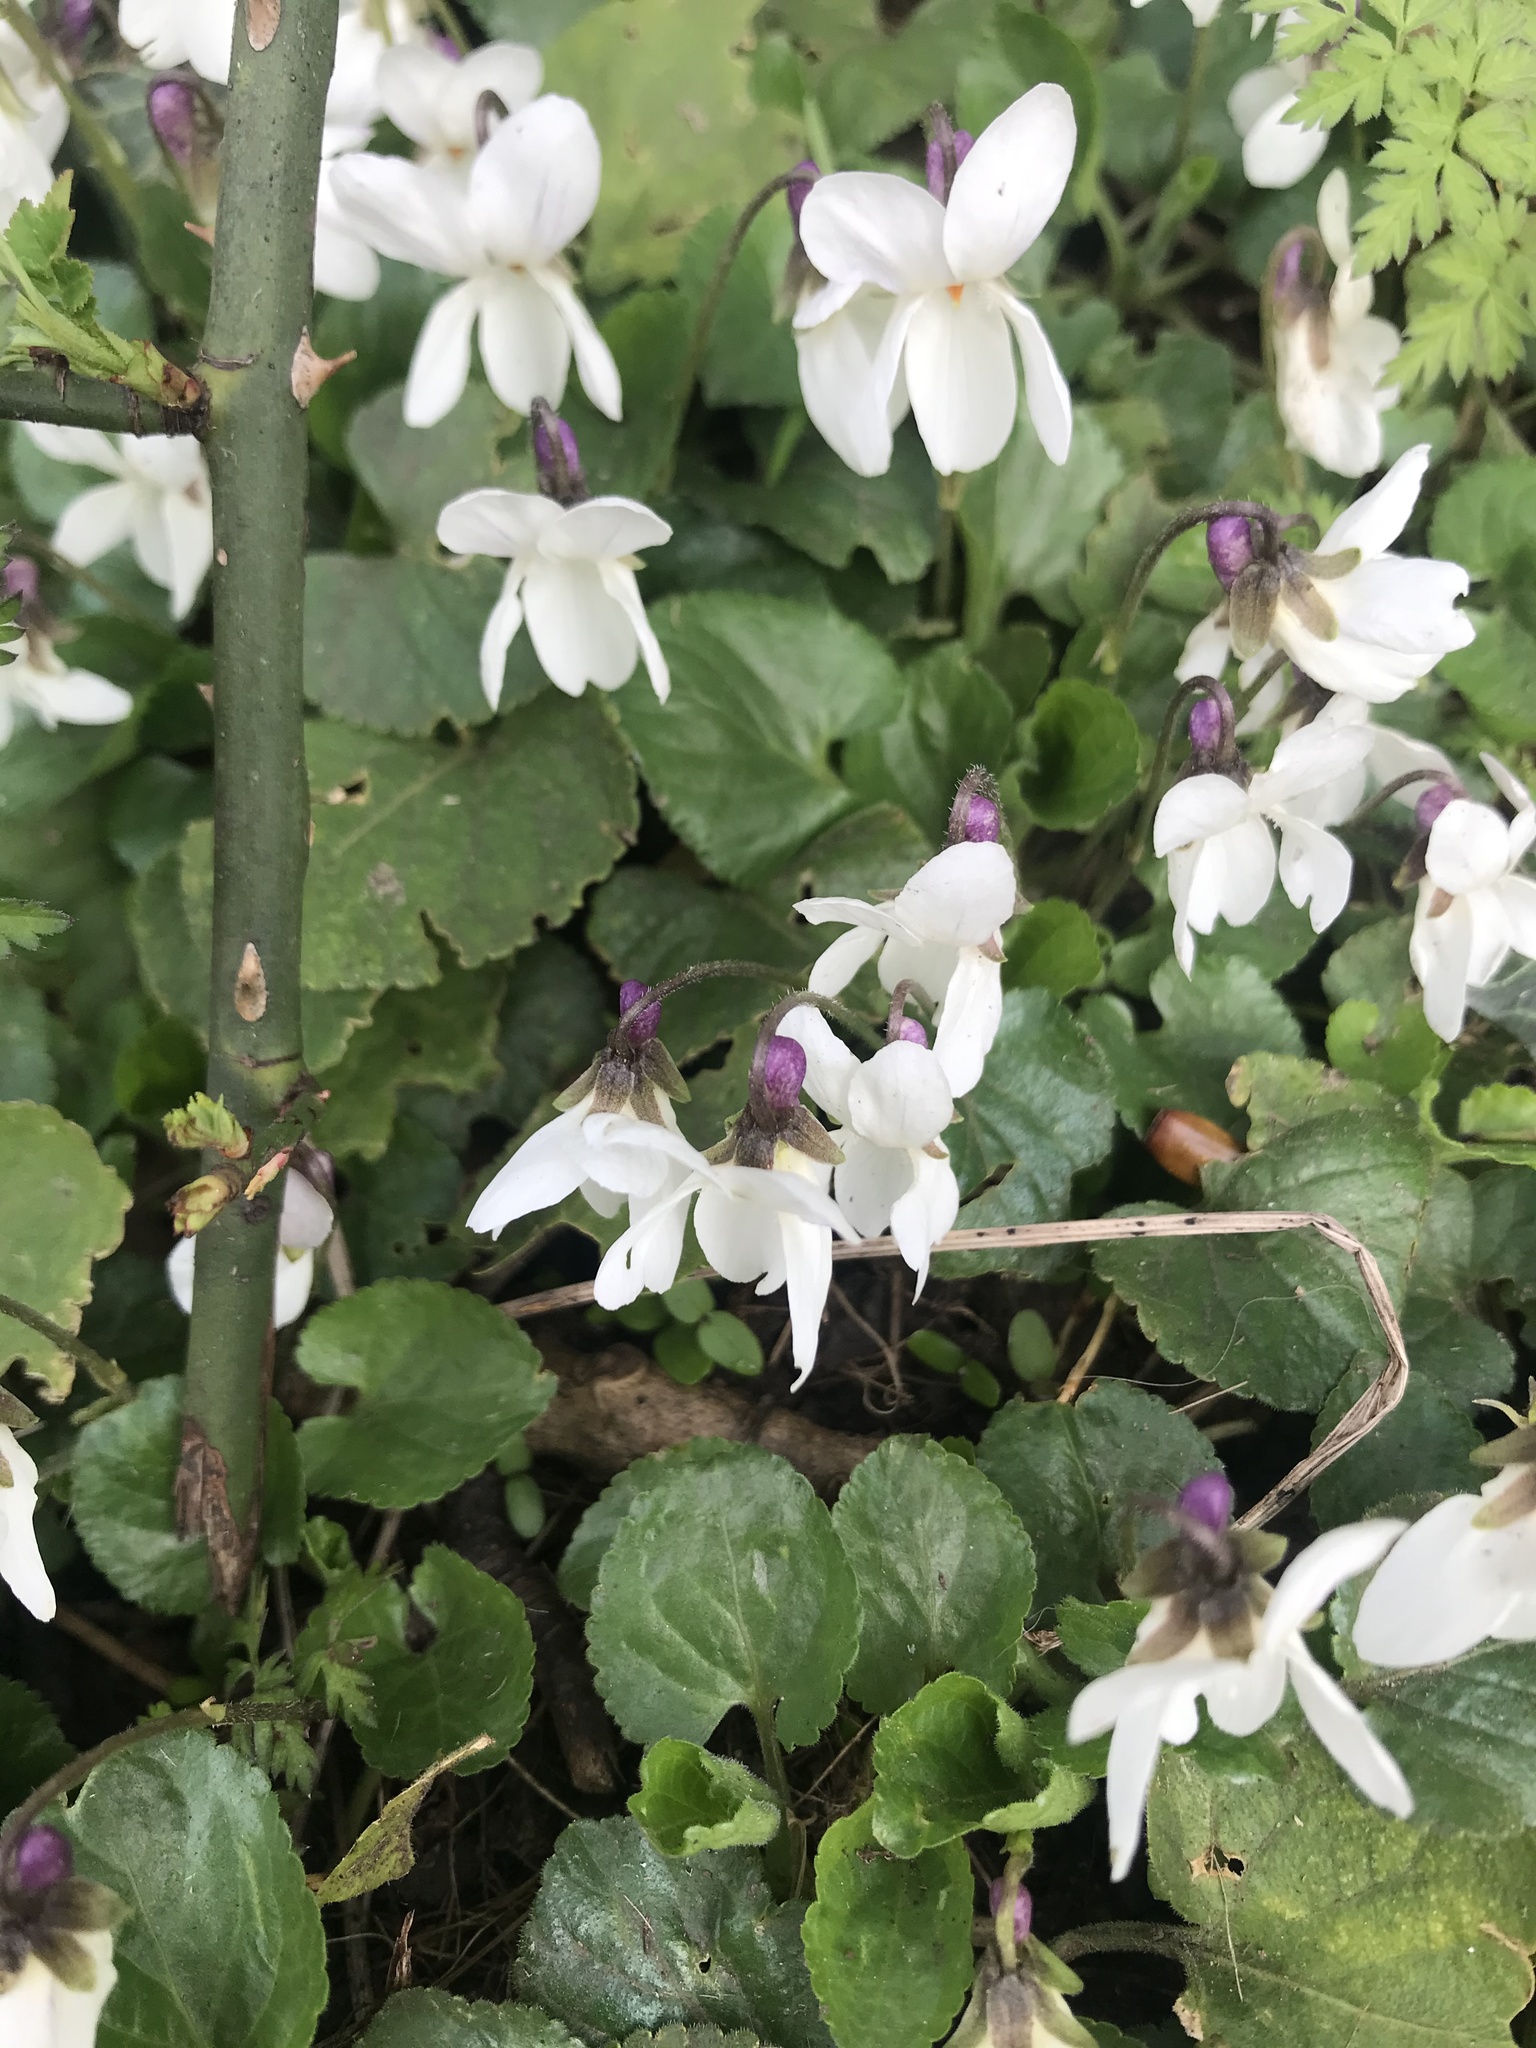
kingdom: Plantae
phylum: Tracheophyta
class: Magnoliopsida
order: Malpighiales
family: Violaceae
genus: Viola
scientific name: Viola odorata
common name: Sweet violet
